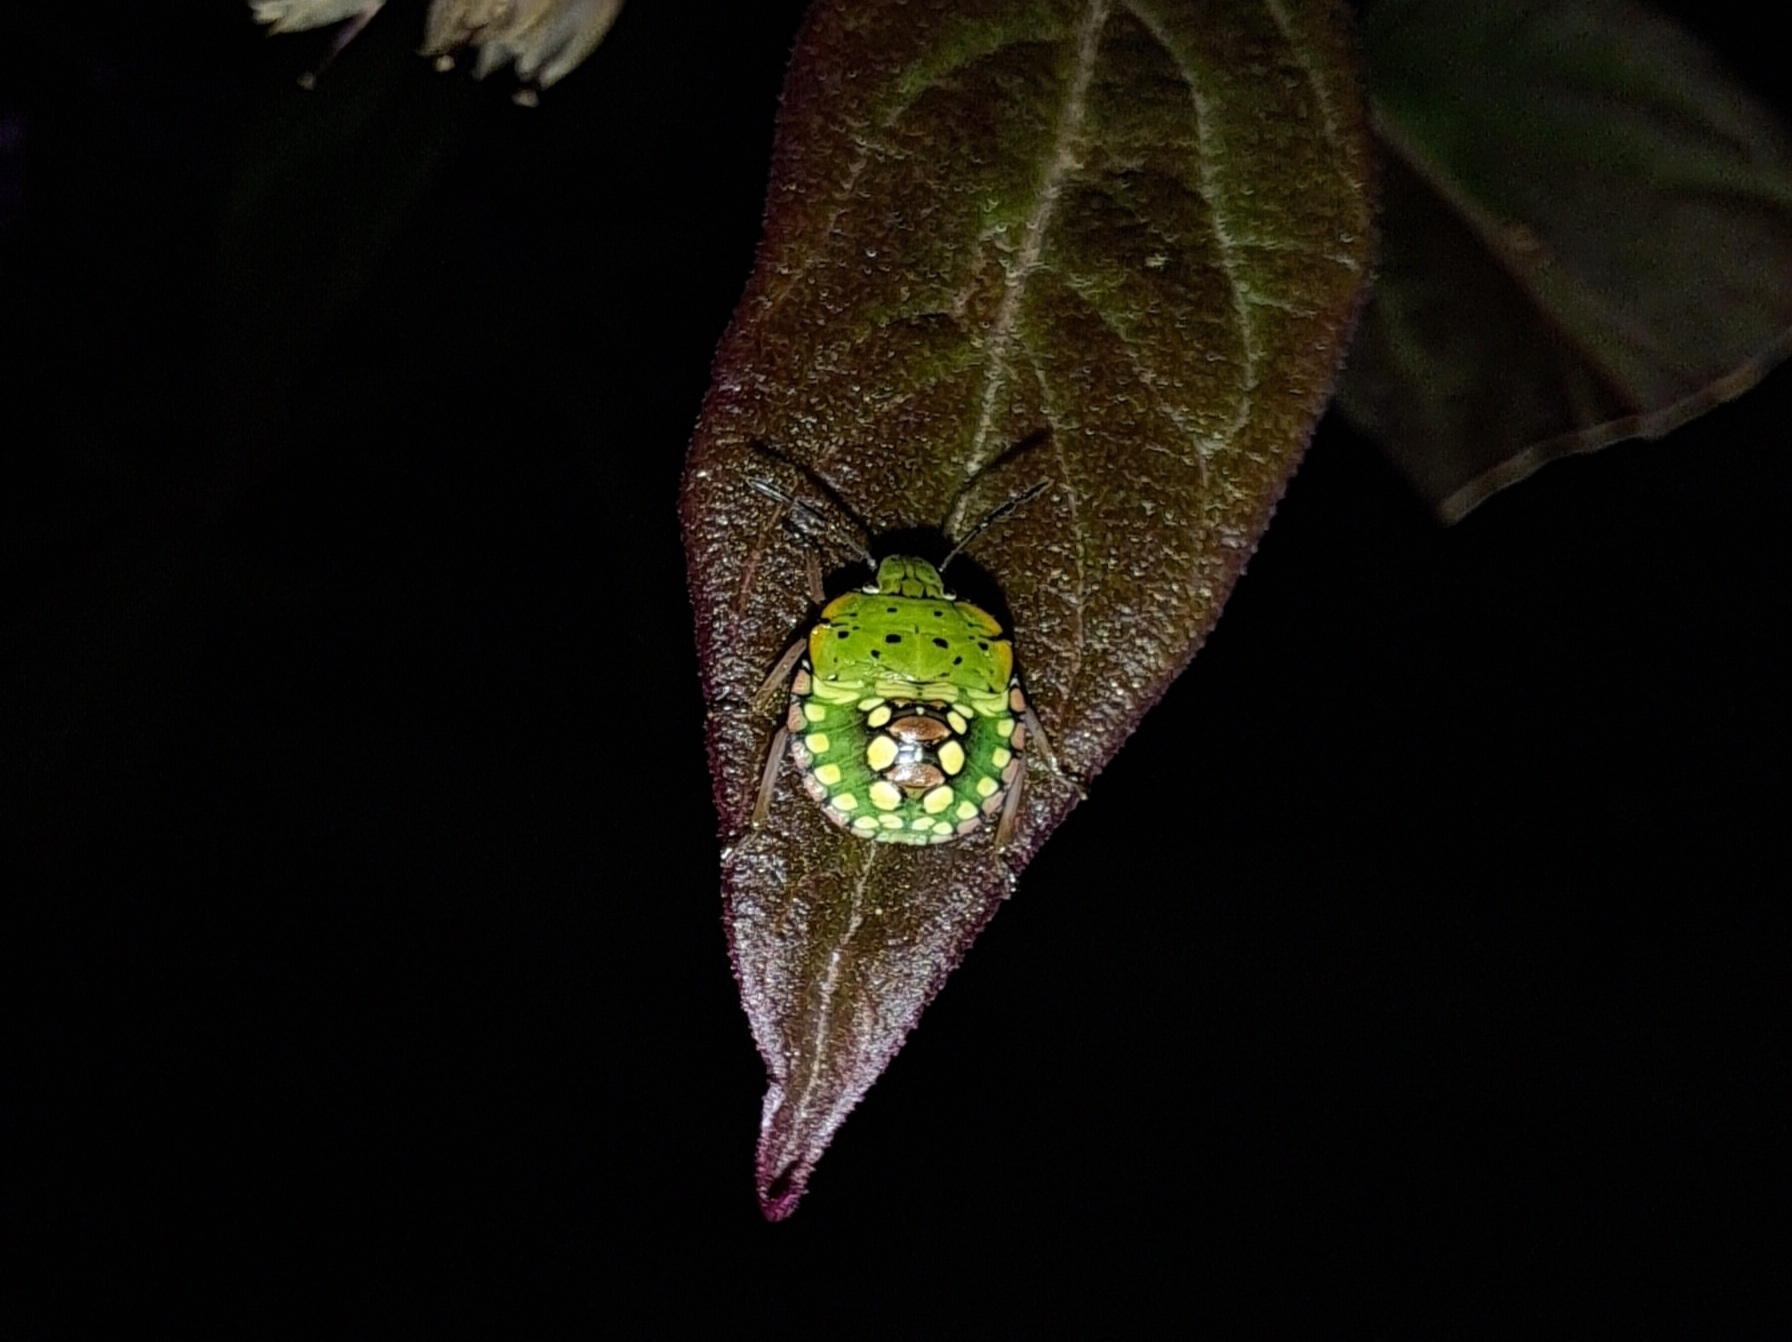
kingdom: Animalia
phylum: Arthropoda
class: Insecta
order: Hemiptera
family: Pentatomidae
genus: Nezara
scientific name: Nezara viridula
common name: Southern green stink bug
